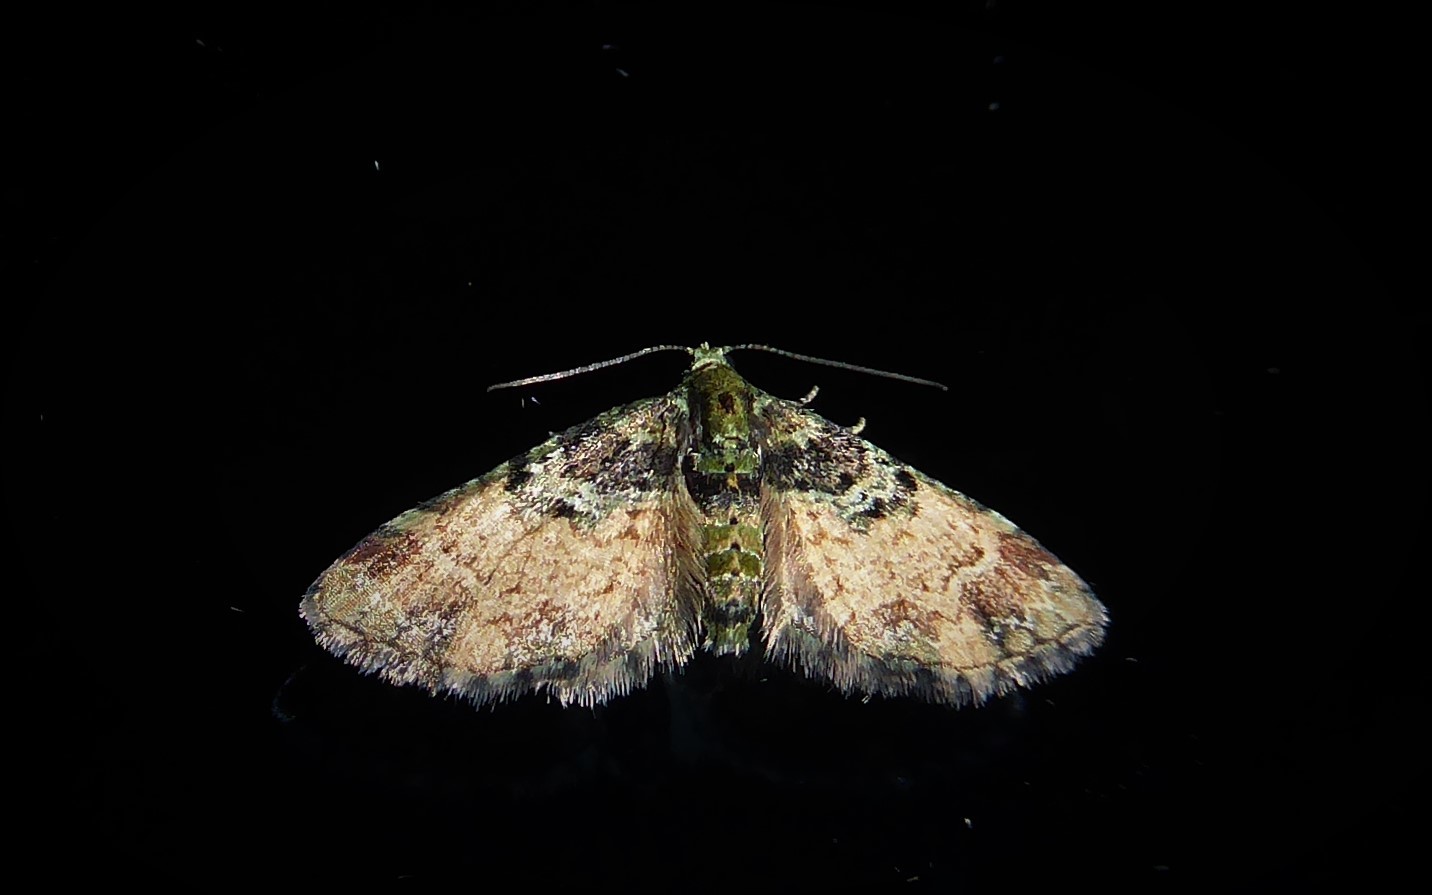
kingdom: Animalia
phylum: Arthropoda
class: Insecta
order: Lepidoptera
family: Geometridae
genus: Pasiphila
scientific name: Pasiphila sandycias
